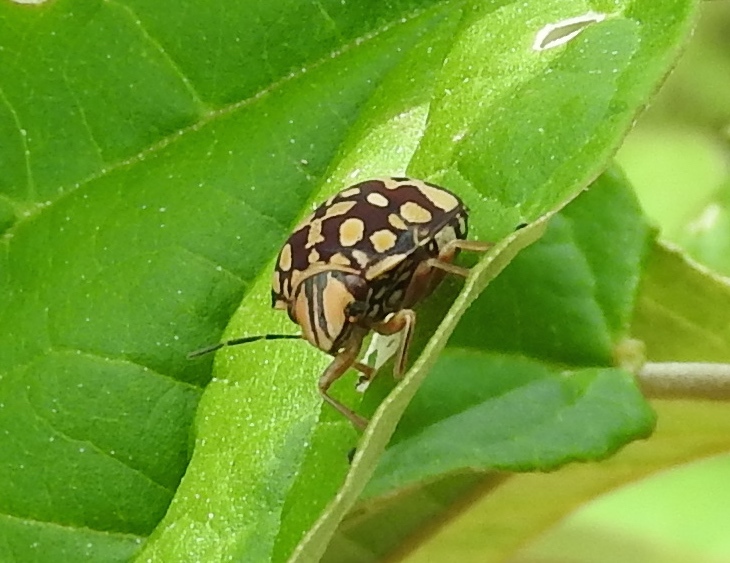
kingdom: Animalia
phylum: Arthropoda
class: Insecta
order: Hemiptera
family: Scutelleridae
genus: Orsilochides
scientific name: Orsilochides
